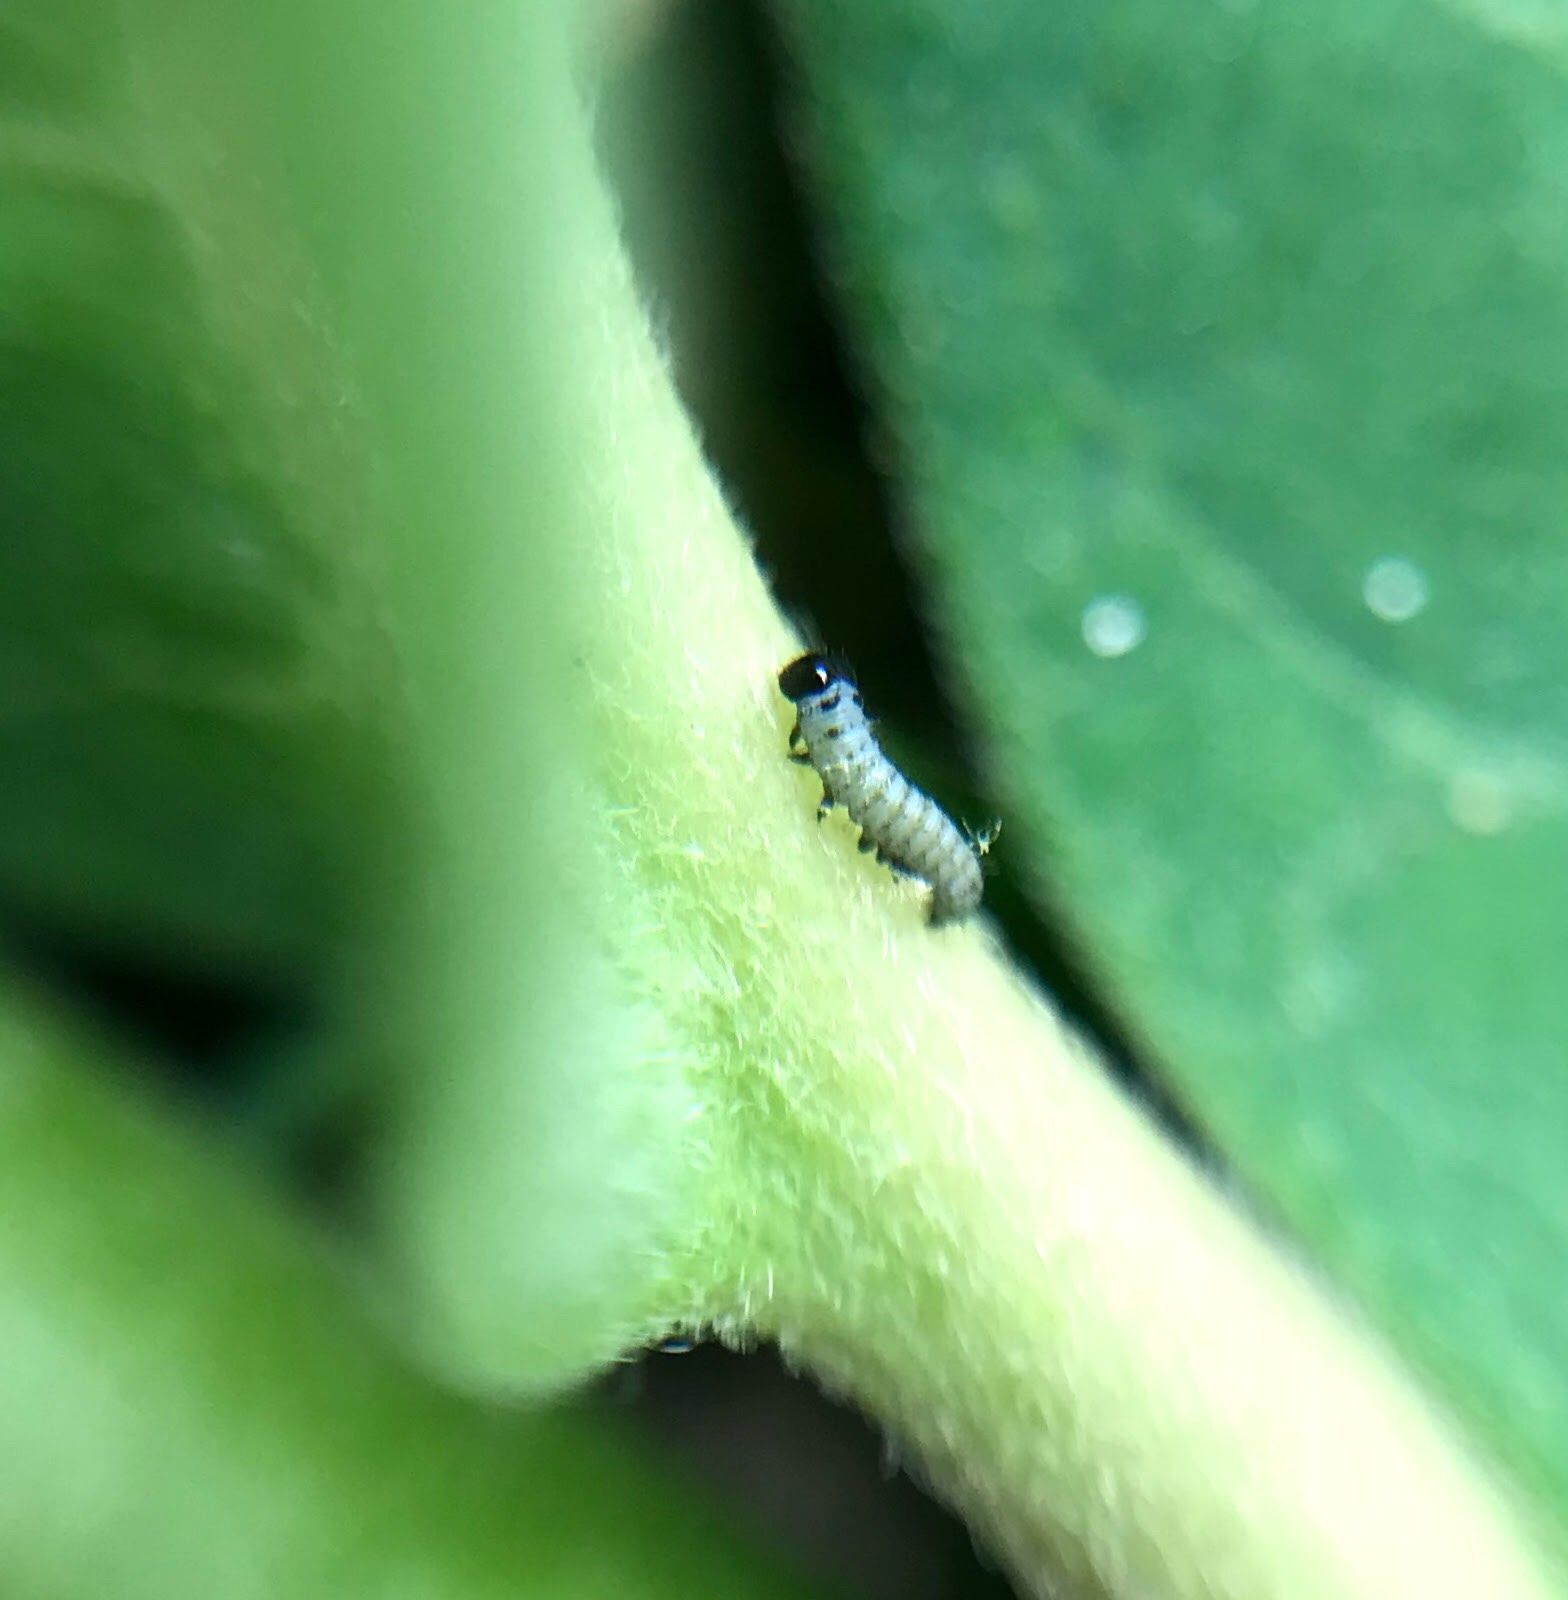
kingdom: Animalia
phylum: Arthropoda
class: Insecta
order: Lepidoptera
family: Nymphalidae
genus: Danaus
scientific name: Danaus plexippus
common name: Monarch
